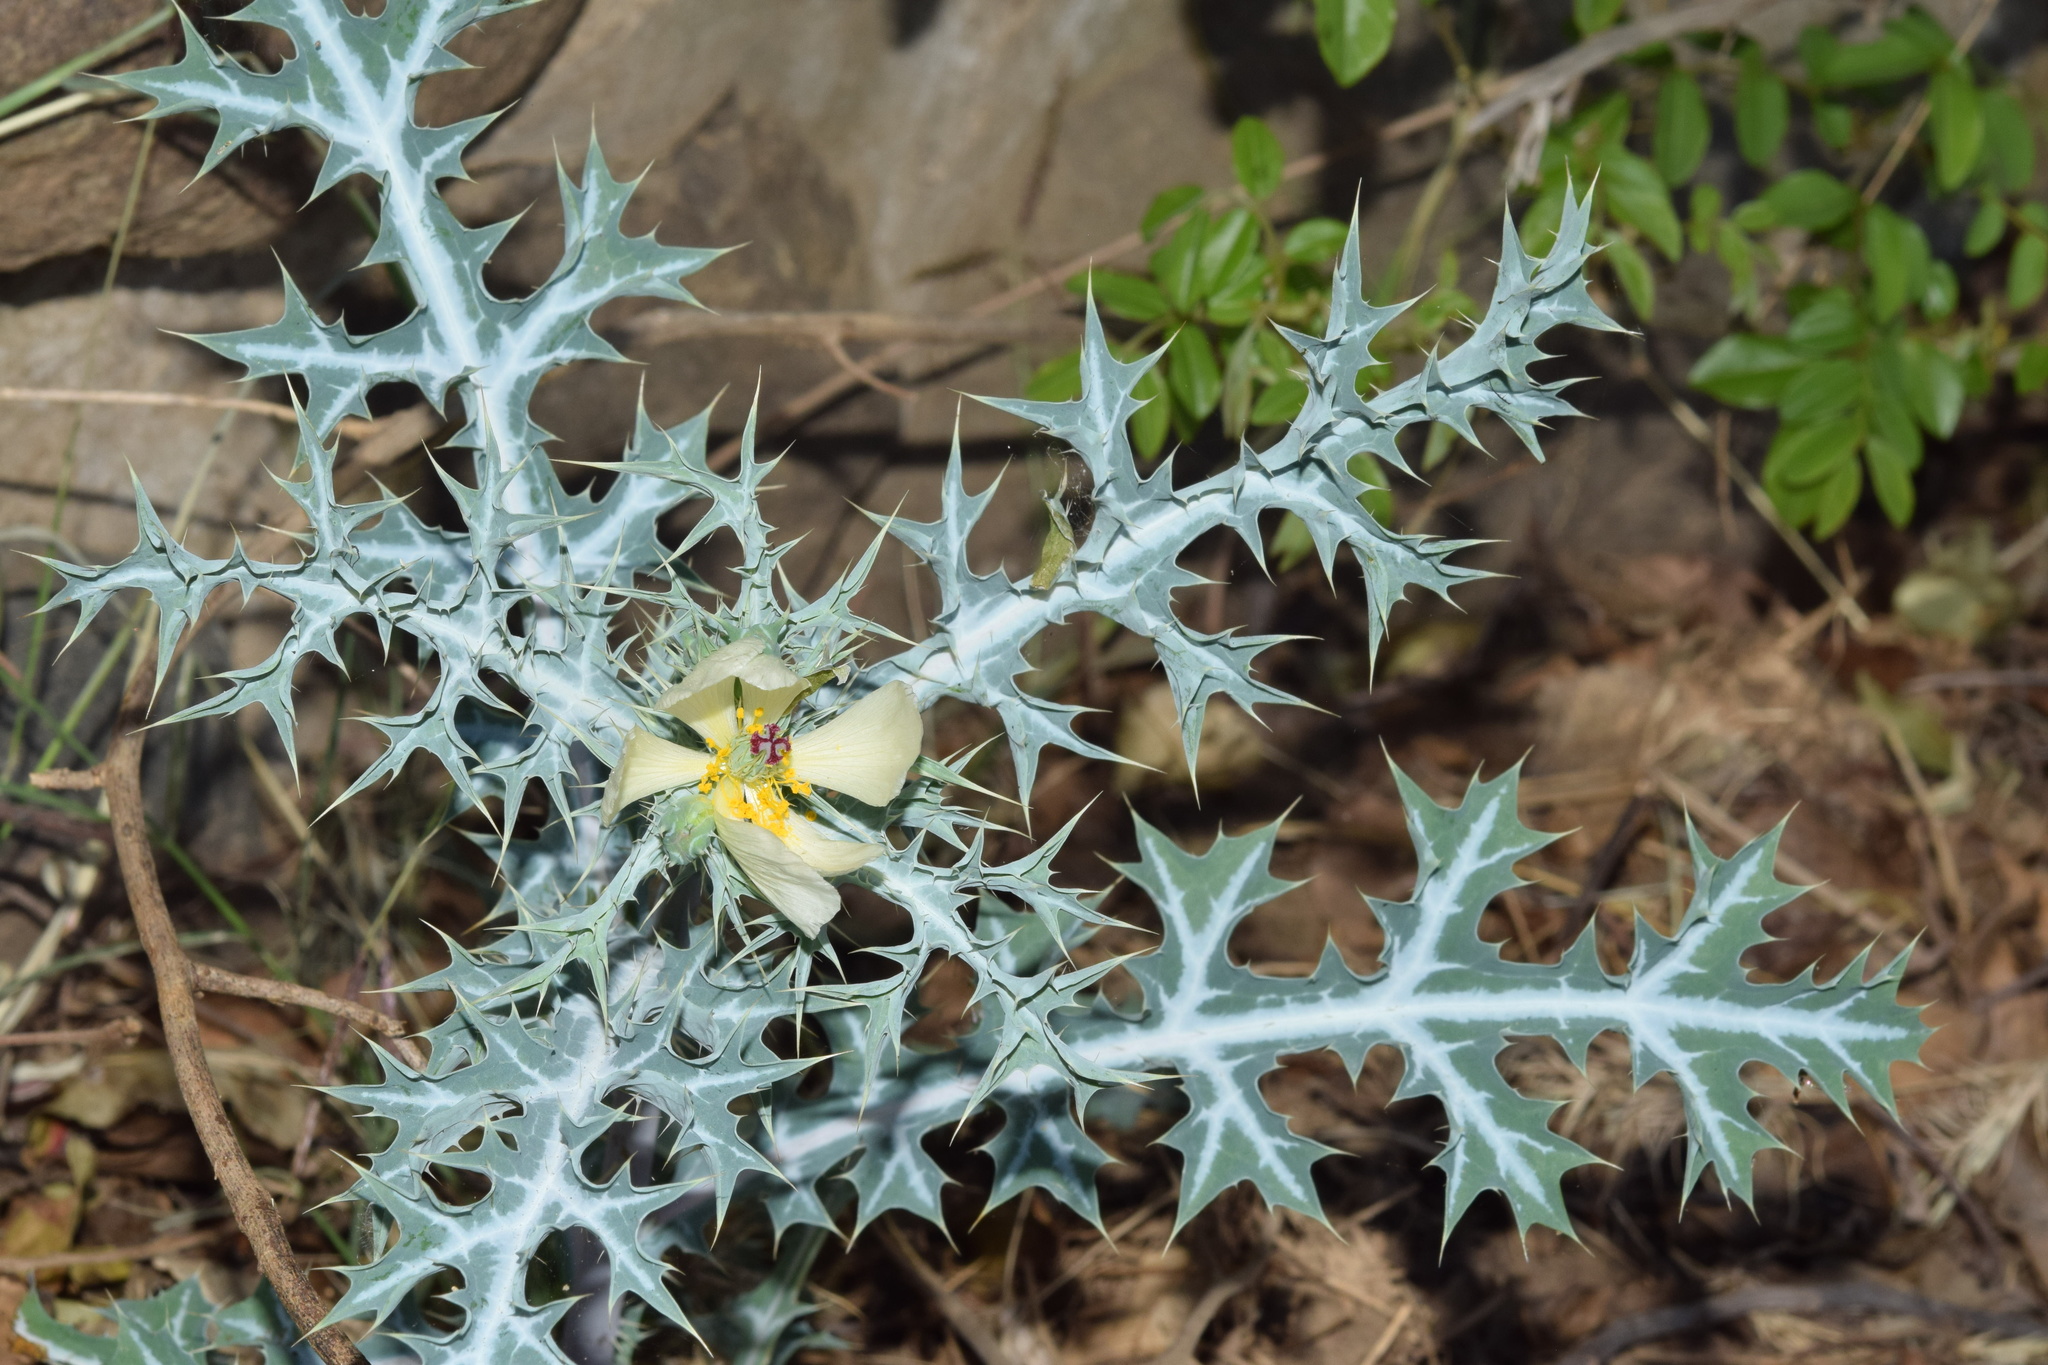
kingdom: Plantae
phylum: Tracheophyta
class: Magnoliopsida
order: Ranunculales
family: Papaveraceae
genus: Argemone
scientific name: Argemone ochroleuca
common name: White-flower mexican-poppy
